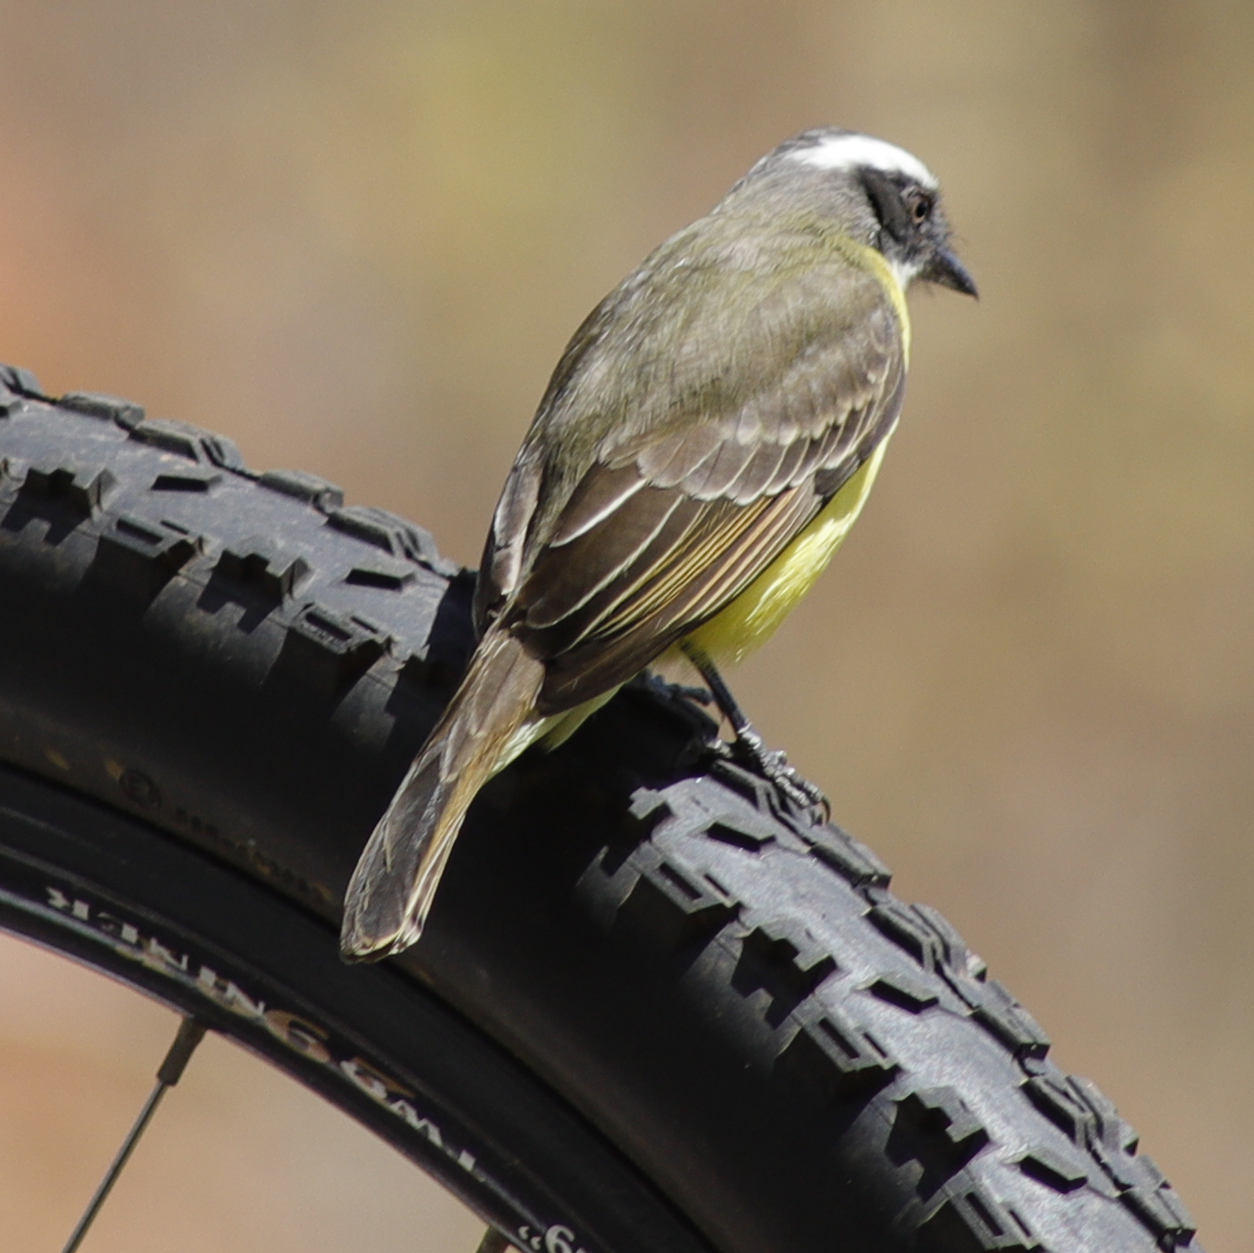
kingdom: Animalia
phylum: Chordata
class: Aves
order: Passeriformes
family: Tyrannidae
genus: Myiozetetes
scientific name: Myiozetetes similis
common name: Social flycatcher
